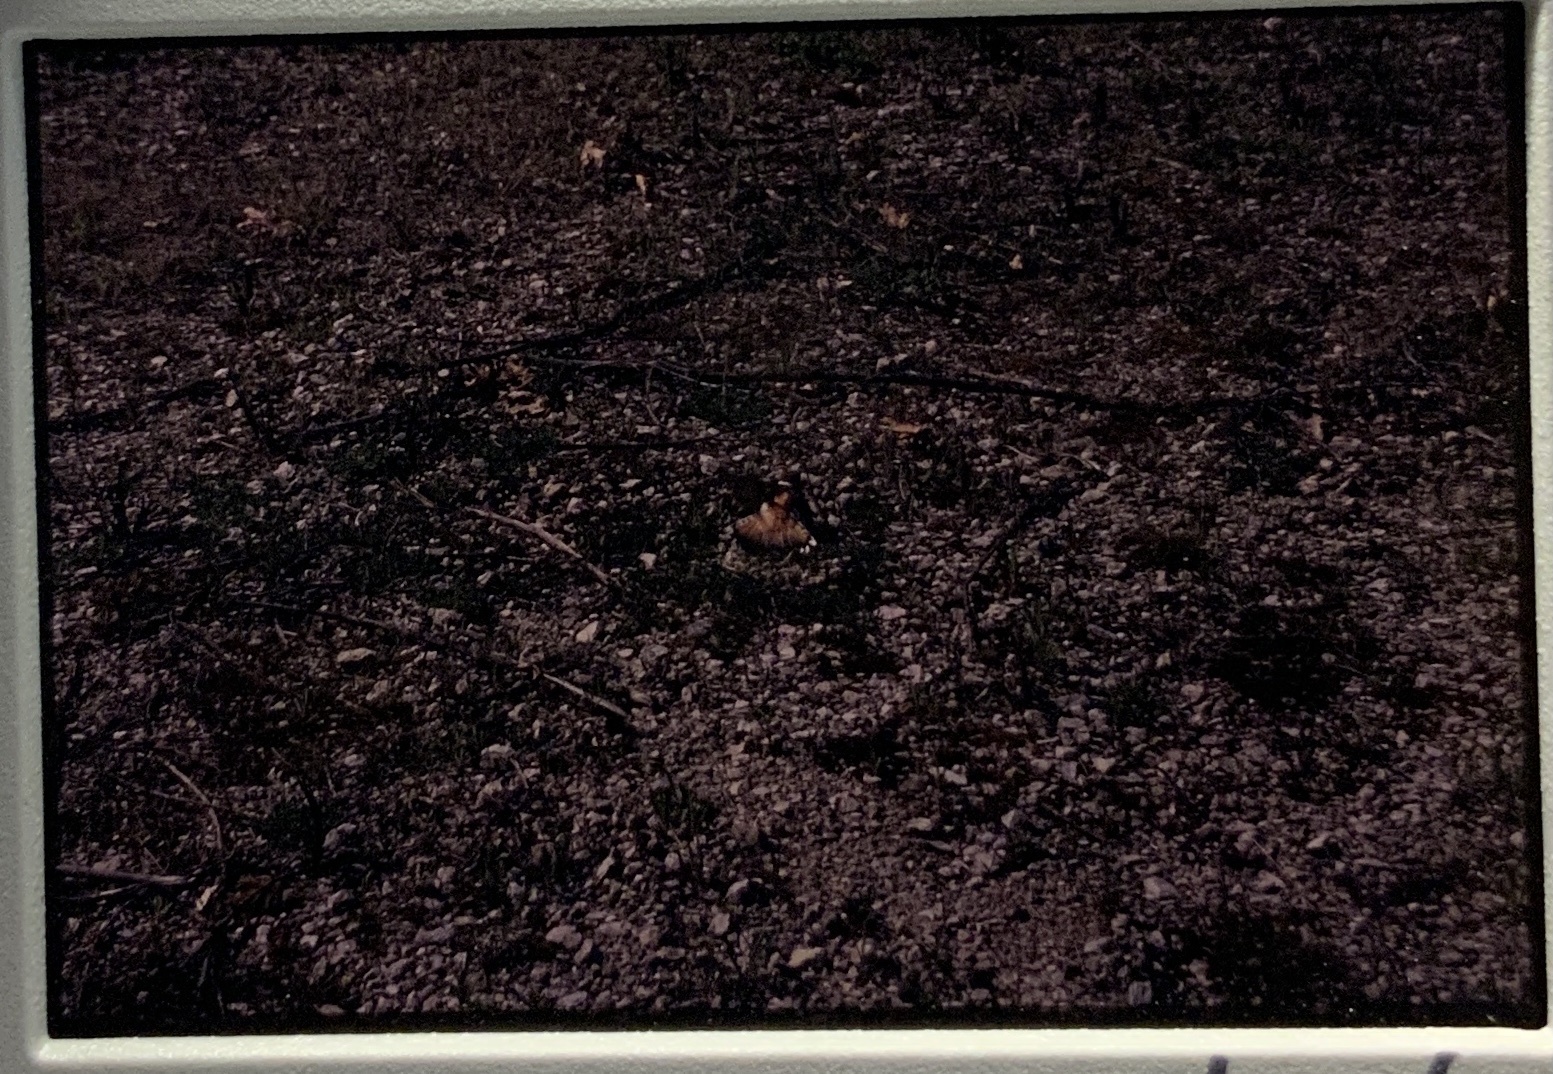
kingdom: Animalia
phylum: Chordata
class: Aves
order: Charadriiformes
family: Charadriidae
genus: Charadrius
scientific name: Charadrius vociferus
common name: Killdeer
